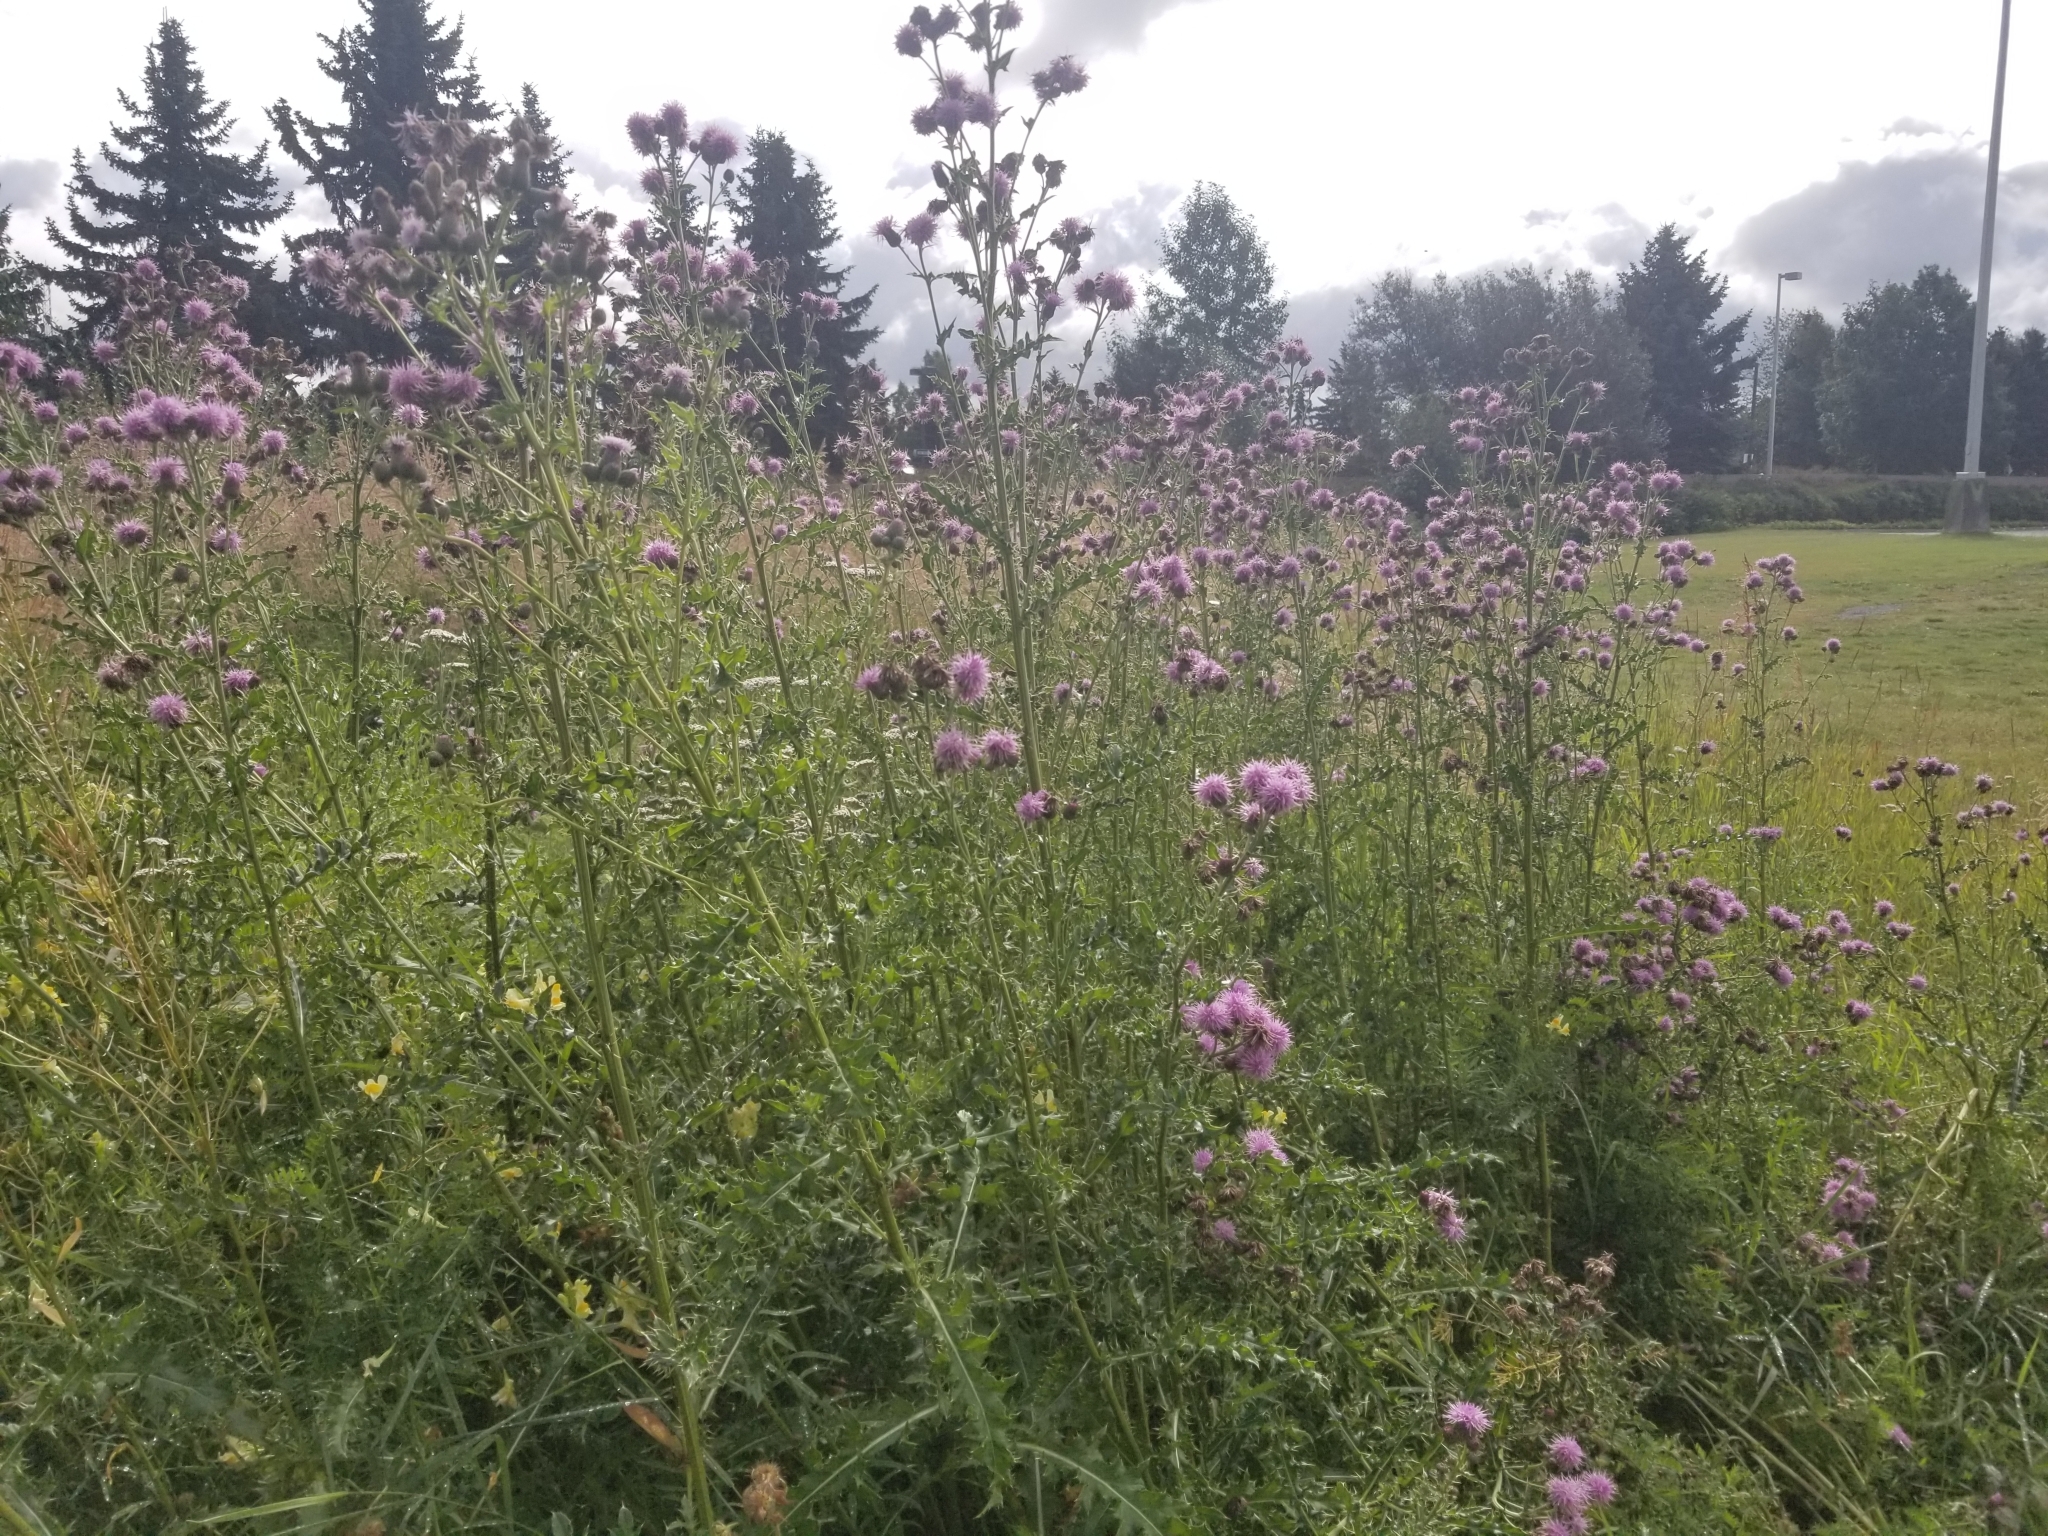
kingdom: Plantae
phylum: Tracheophyta
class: Magnoliopsida
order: Asterales
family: Asteraceae
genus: Cirsium
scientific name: Cirsium arvense
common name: Creeping thistle
